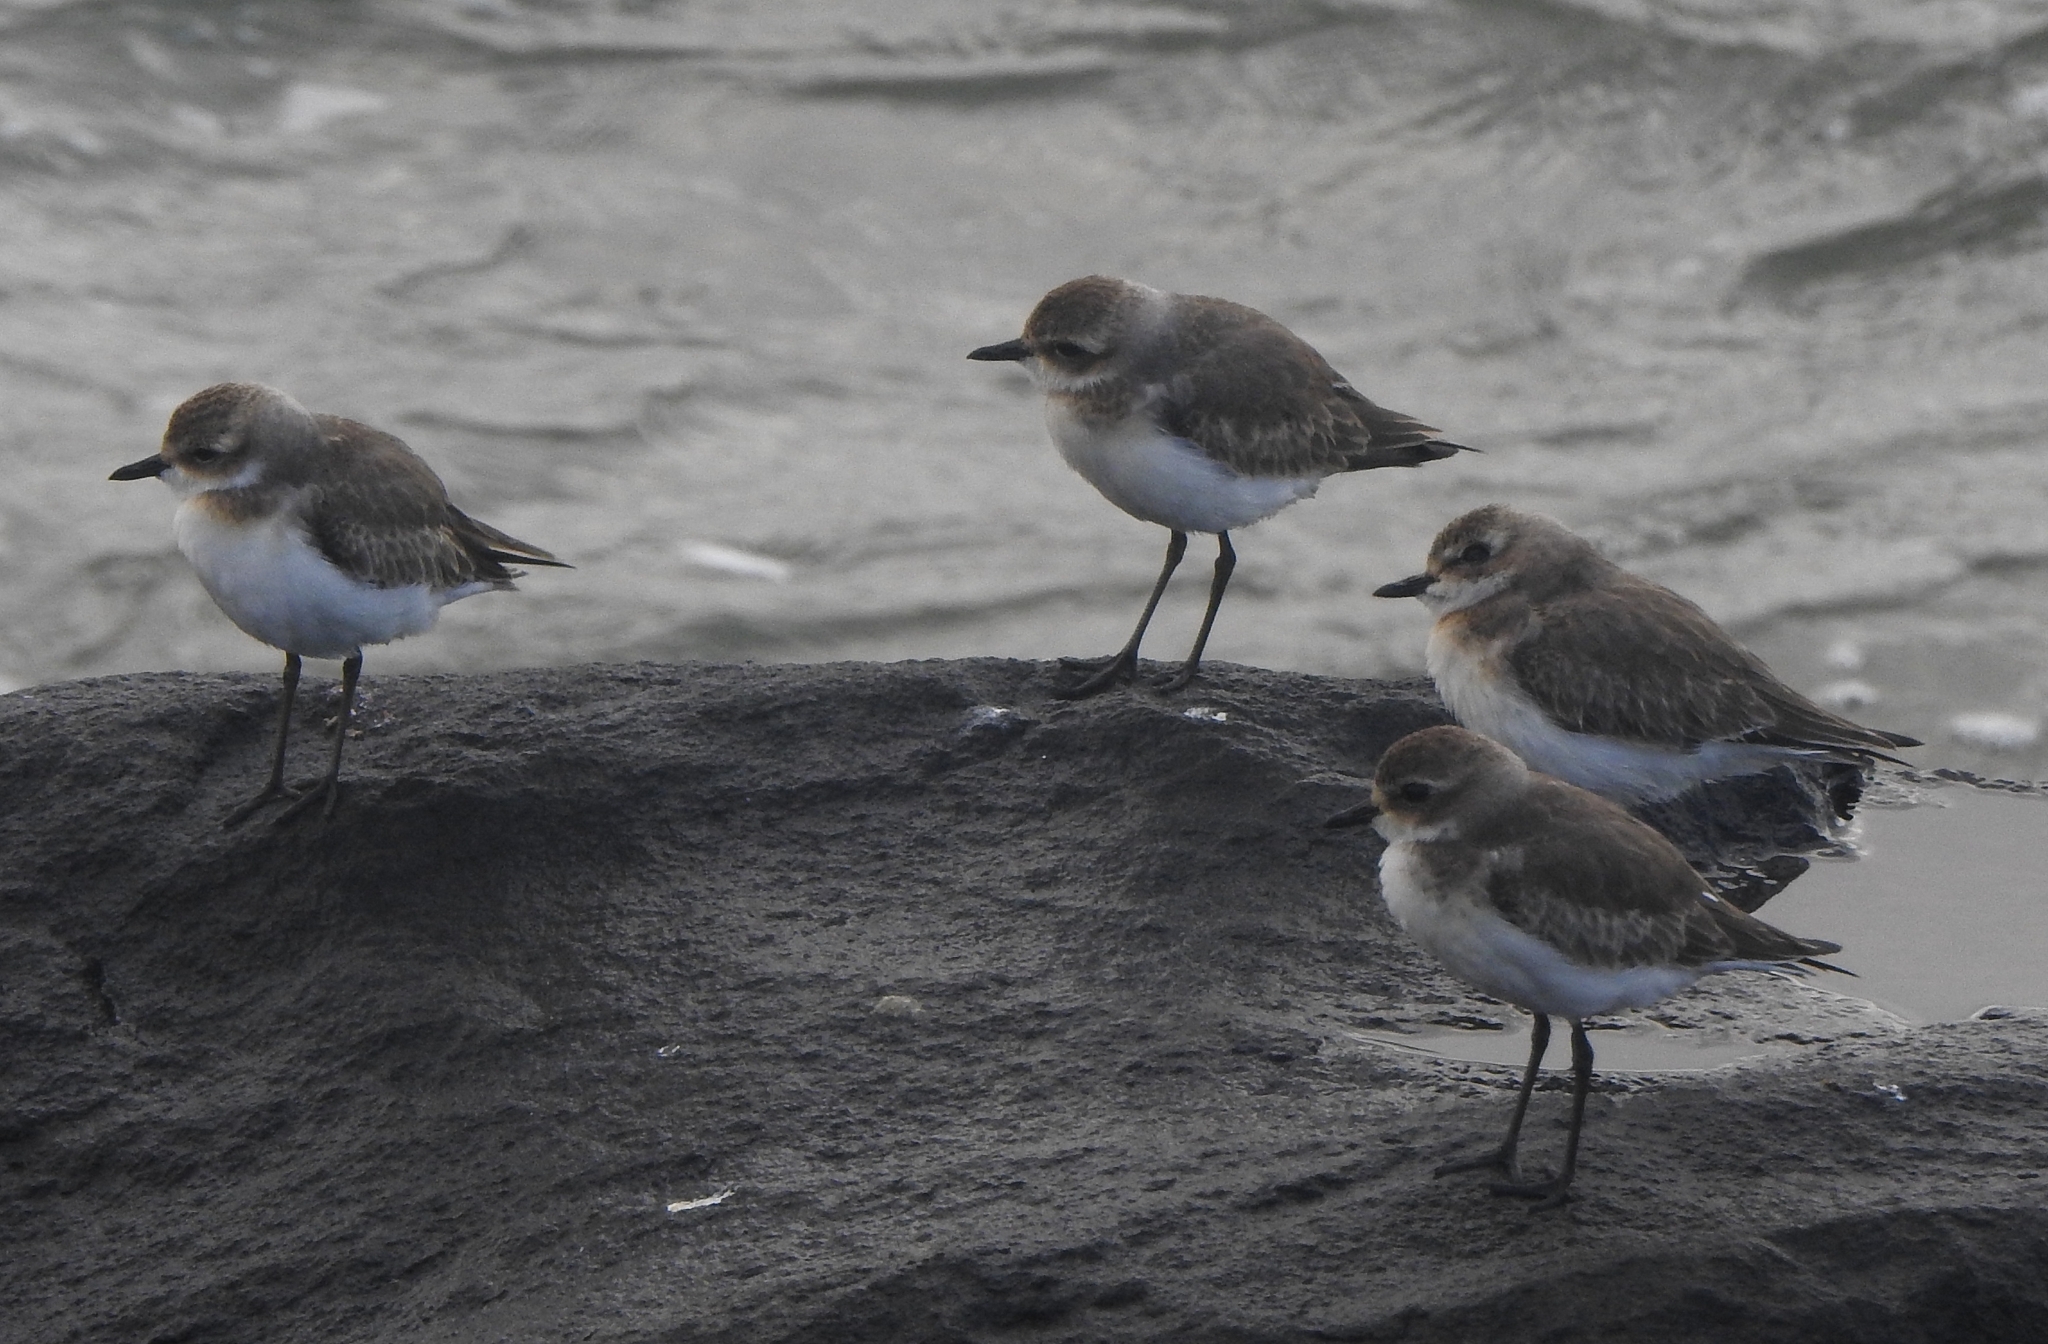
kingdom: Animalia
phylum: Chordata
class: Aves
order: Charadriiformes
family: Charadriidae
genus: Anarhynchus
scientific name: Anarhynchus
